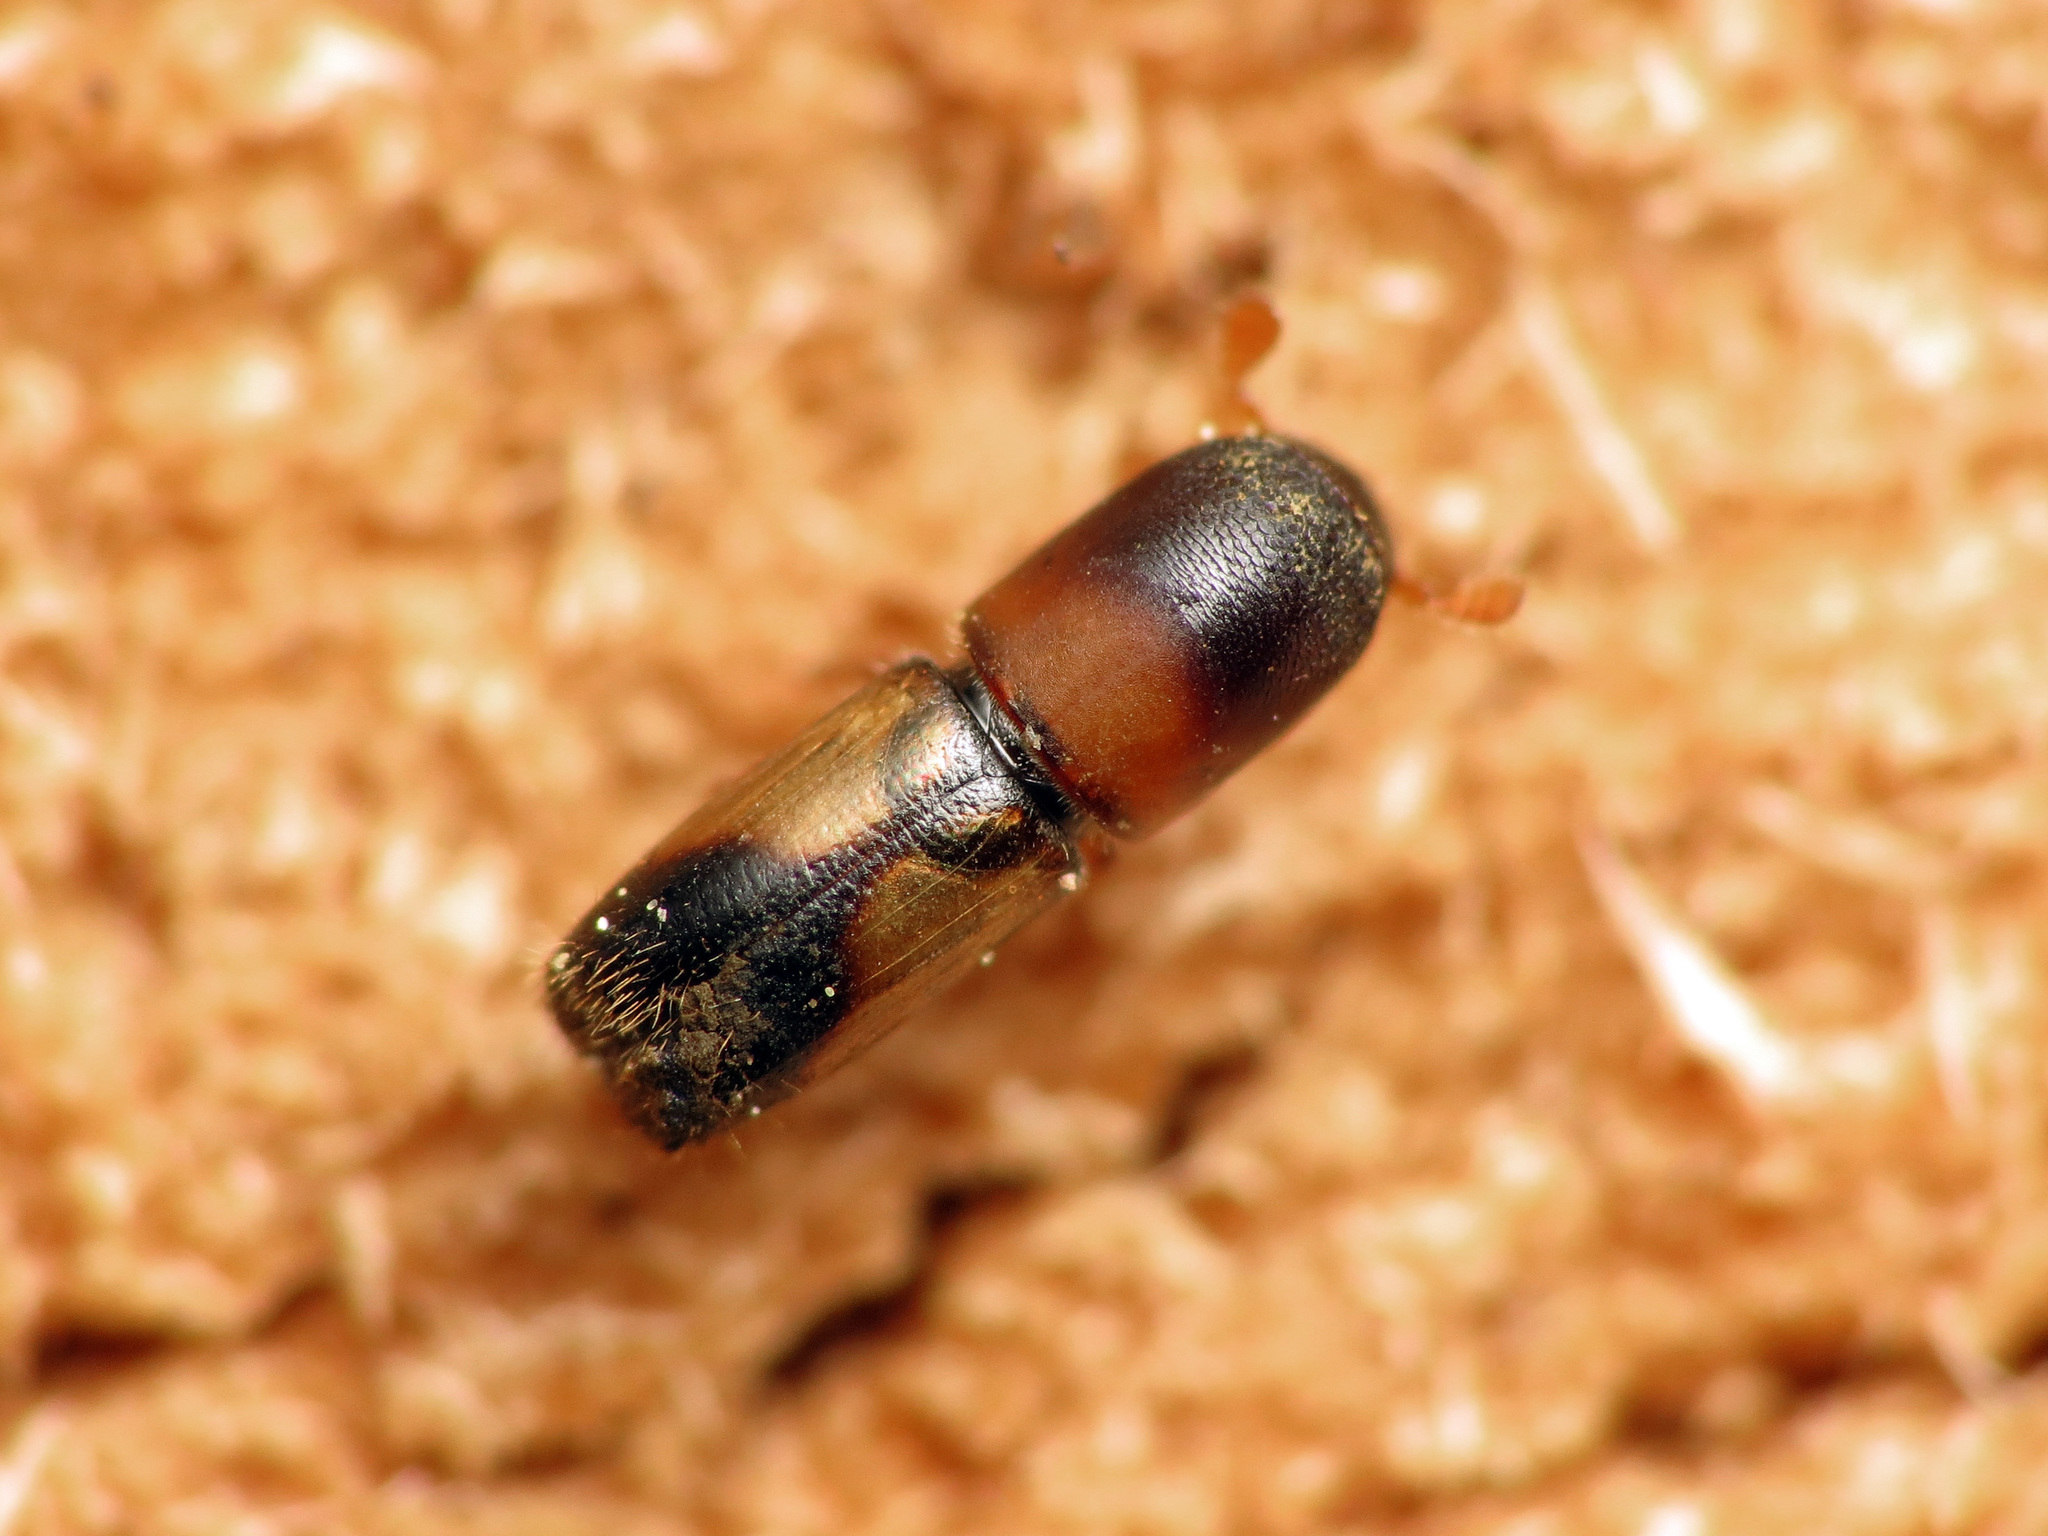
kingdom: Animalia
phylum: Arthropoda
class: Insecta
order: Coleoptera
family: Curculionidae
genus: Monarthrum
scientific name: Monarthrum fasciatum
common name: Yellow-banded timber beetle
